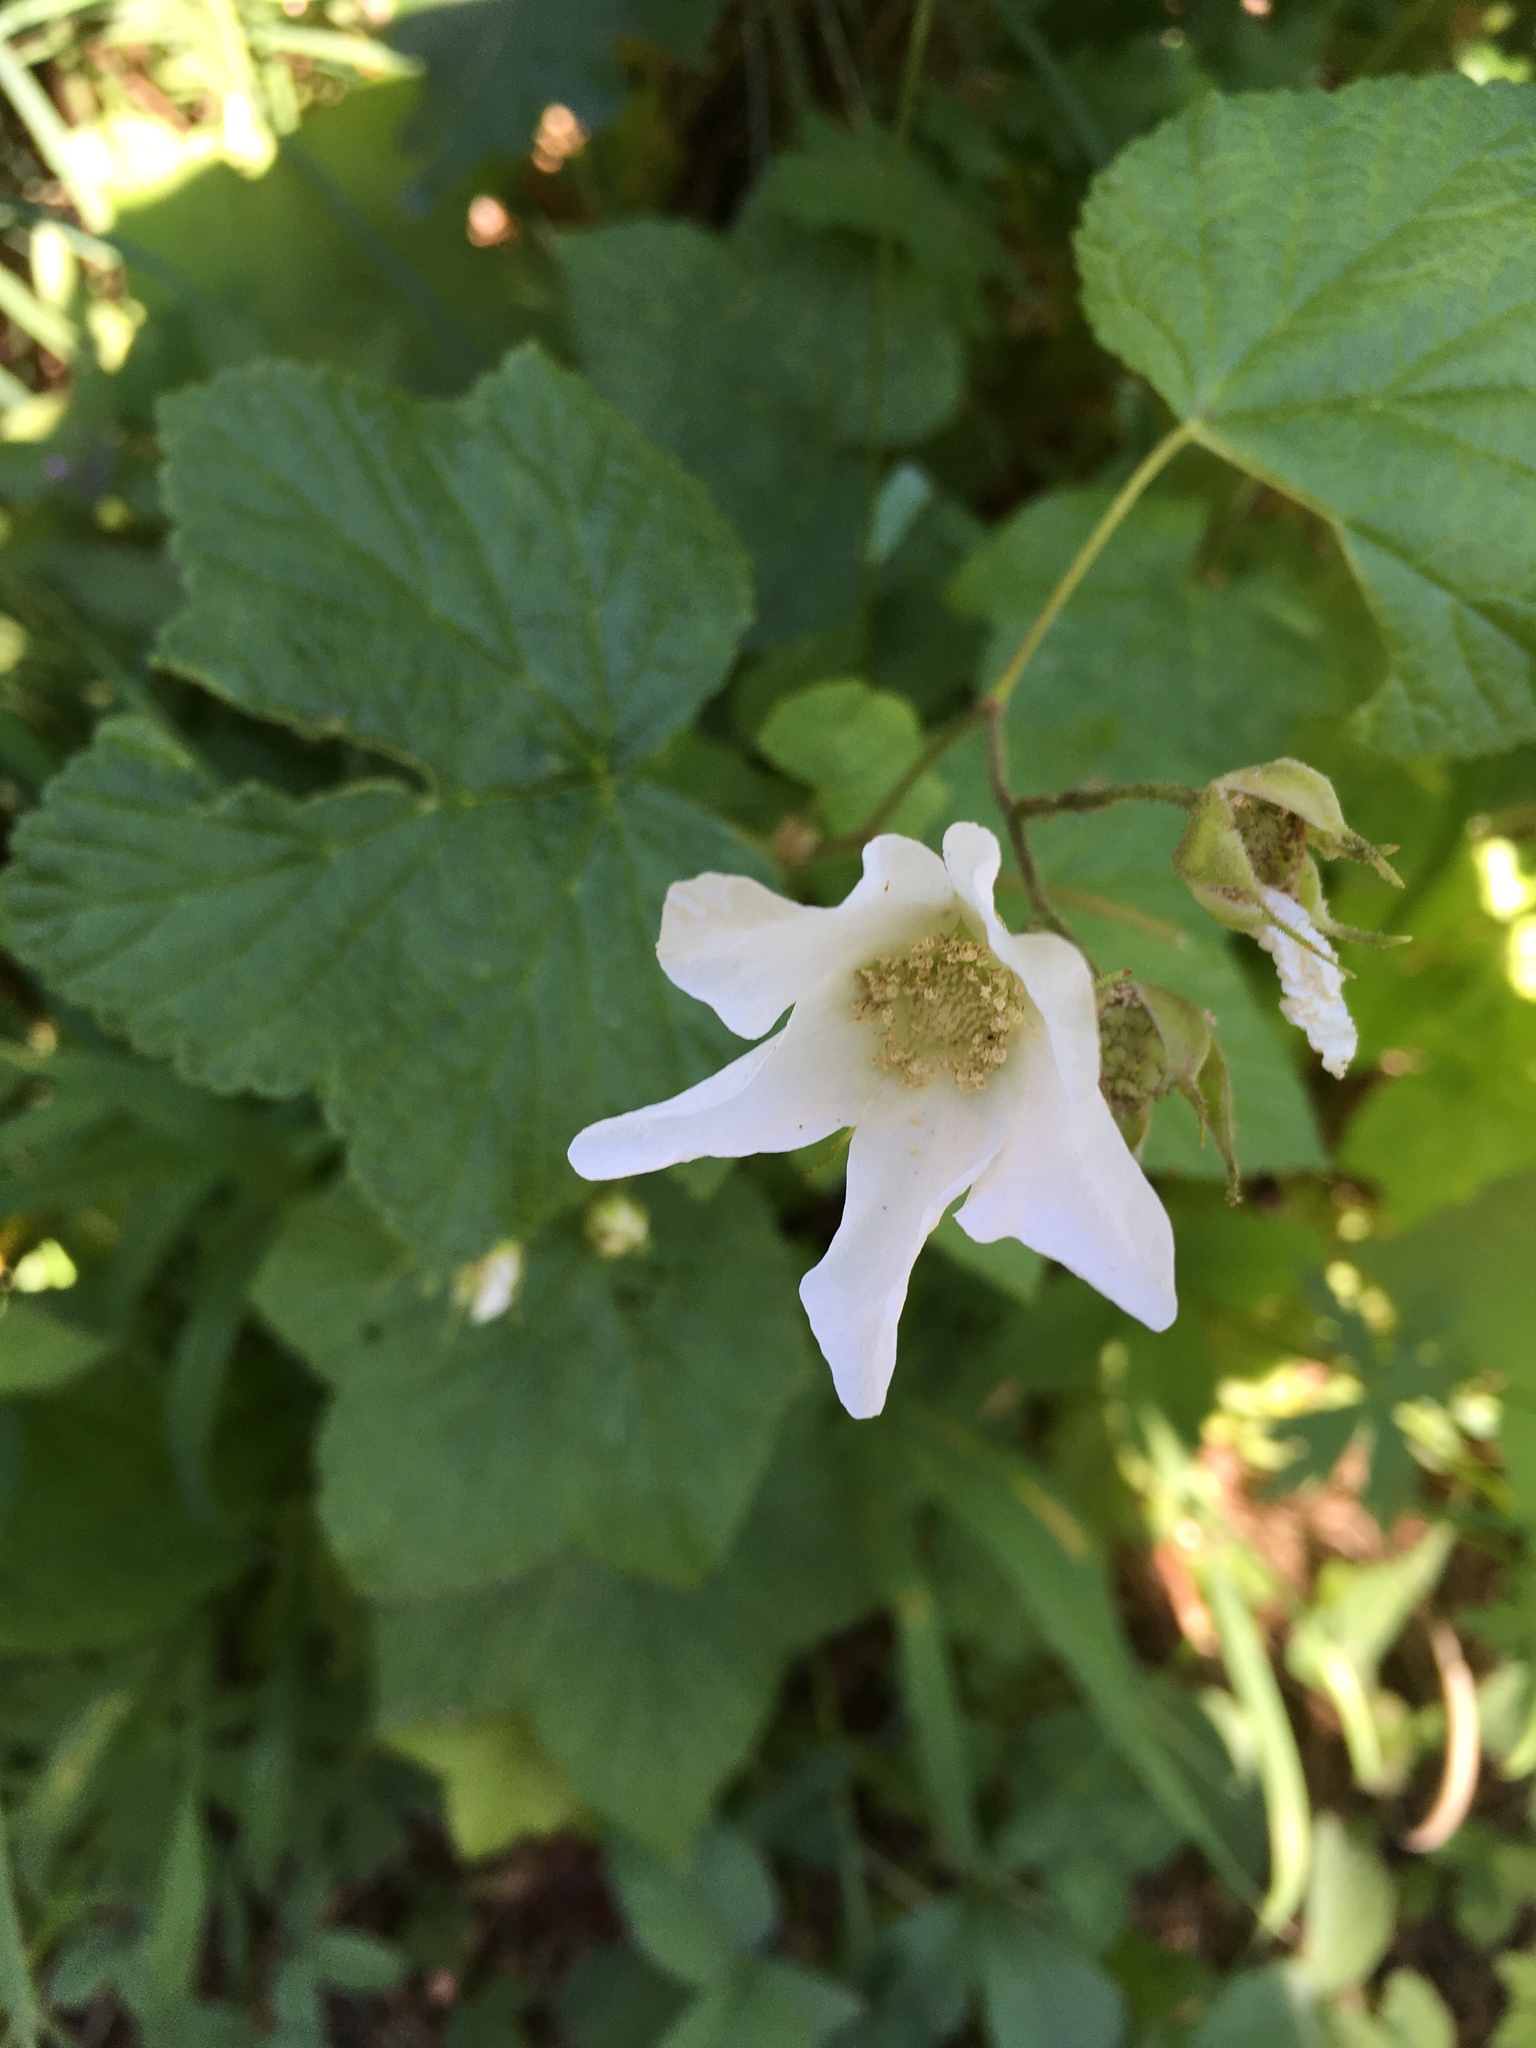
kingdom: Plantae
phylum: Tracheophyta
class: Magnoliopsida
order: Rosales
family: Rosaceae
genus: Rubus
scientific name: Rubus parviflorus
